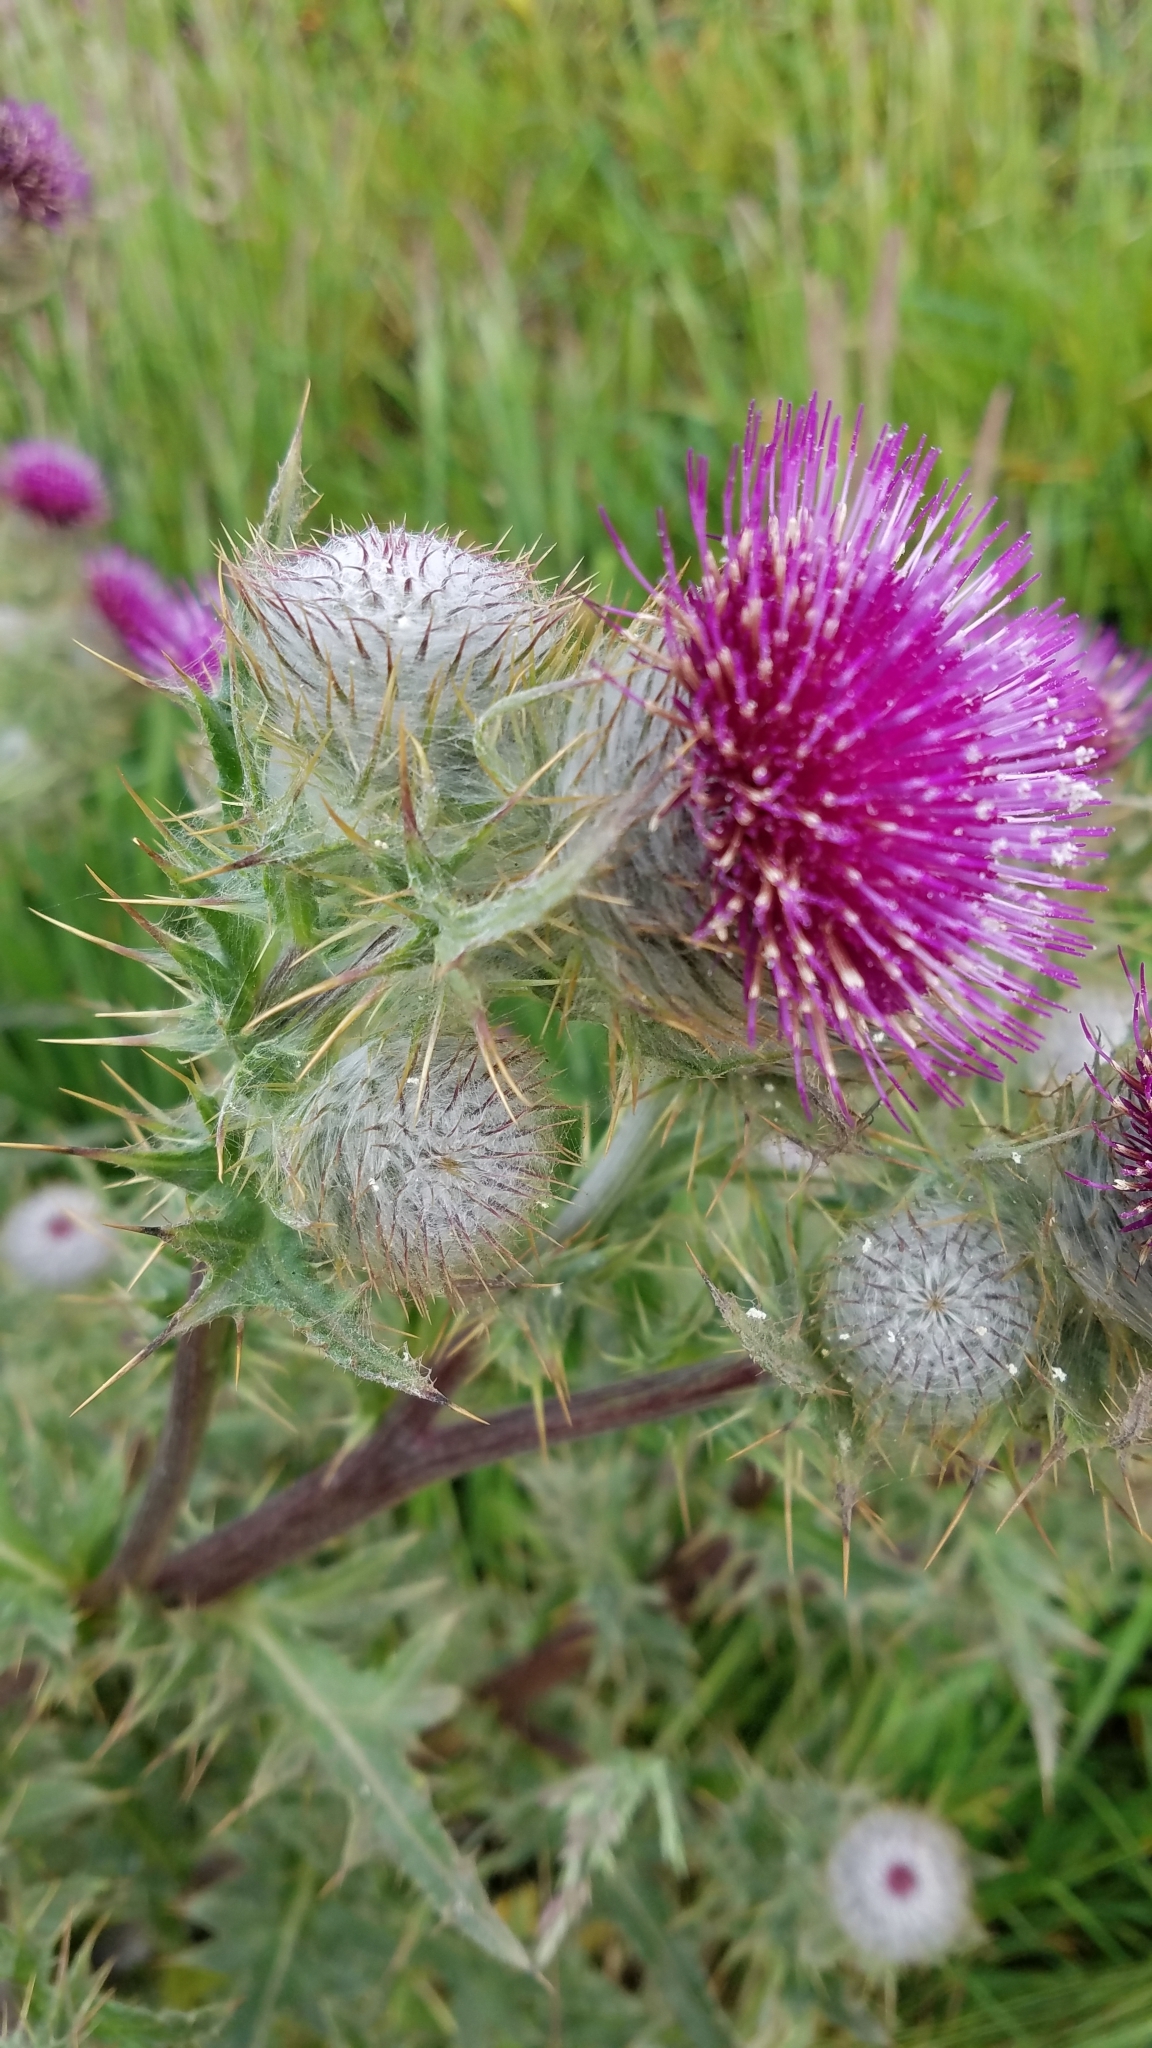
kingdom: Plantae
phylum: Tracheophyta
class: Magnoliopsida
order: Asterales
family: Asteraceae
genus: Cirsium
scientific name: Cirsium occidentale
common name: Western thistle
